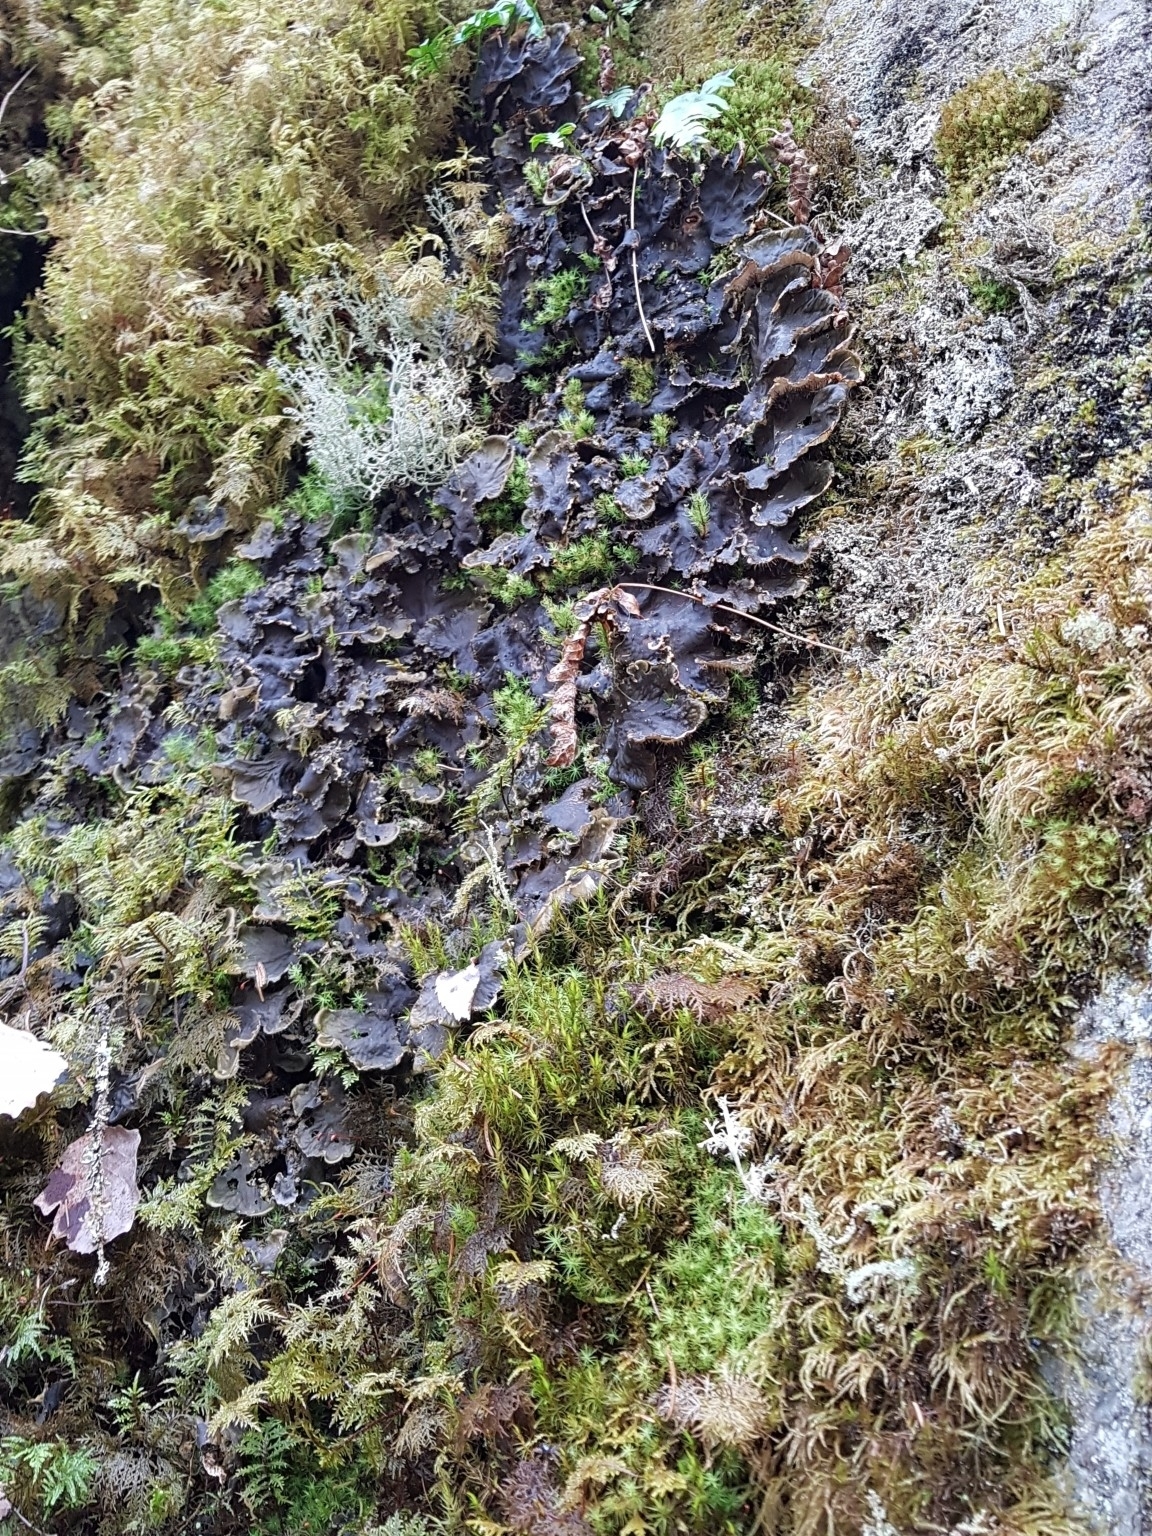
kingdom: Fungi
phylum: Ascomycota
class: Lecanoromycetes
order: Peltigerales
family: Peltigeraceae
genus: Peltigera
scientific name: Peltigera praetextata
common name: Scaly dog-lichen
